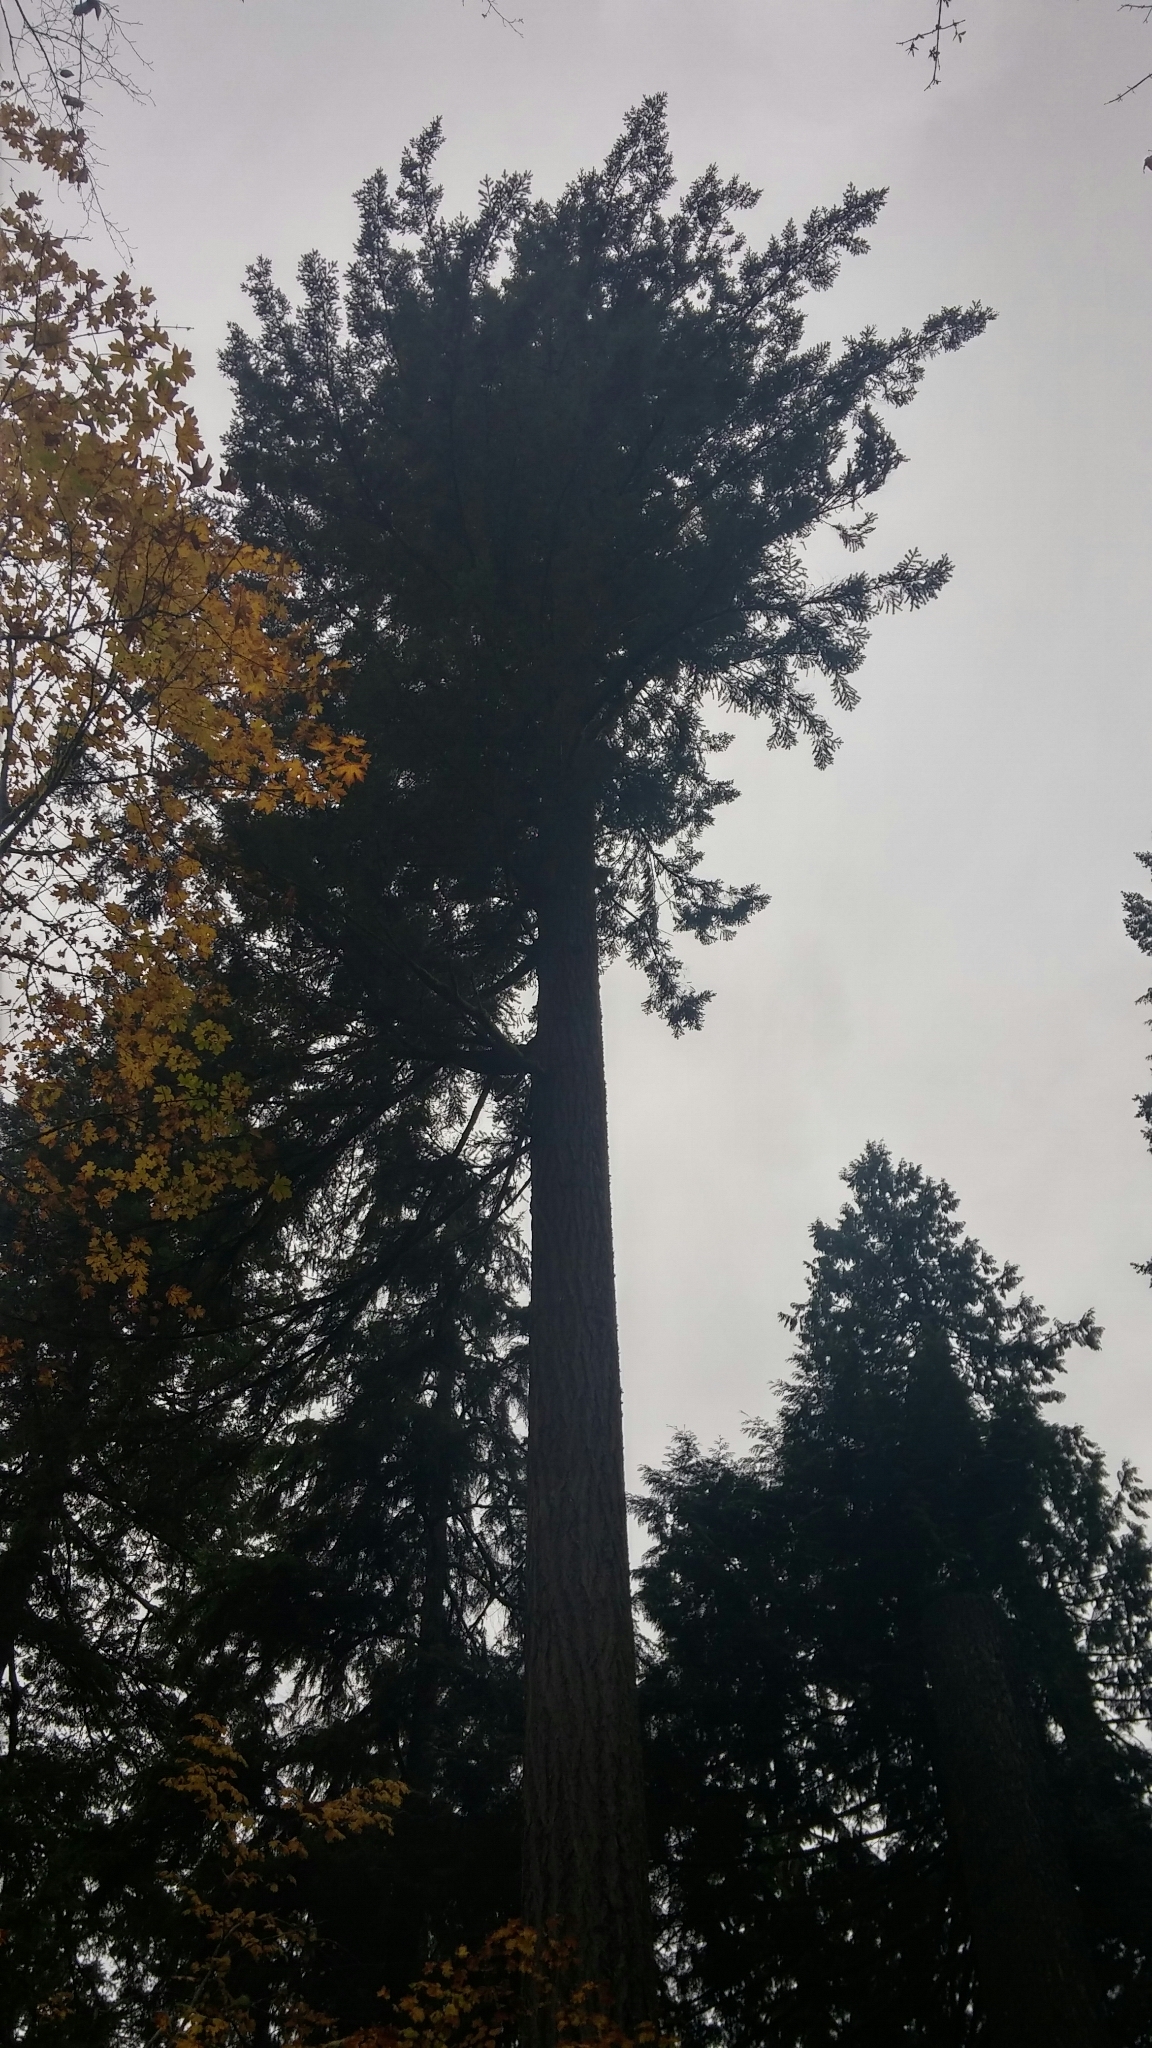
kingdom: Plantae
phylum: Tracheophyta
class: Pinopsida
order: Pinales
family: Pinaceae
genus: Pseudotsuga
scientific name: Pseudotsuga menziesii
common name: Douglas fir
